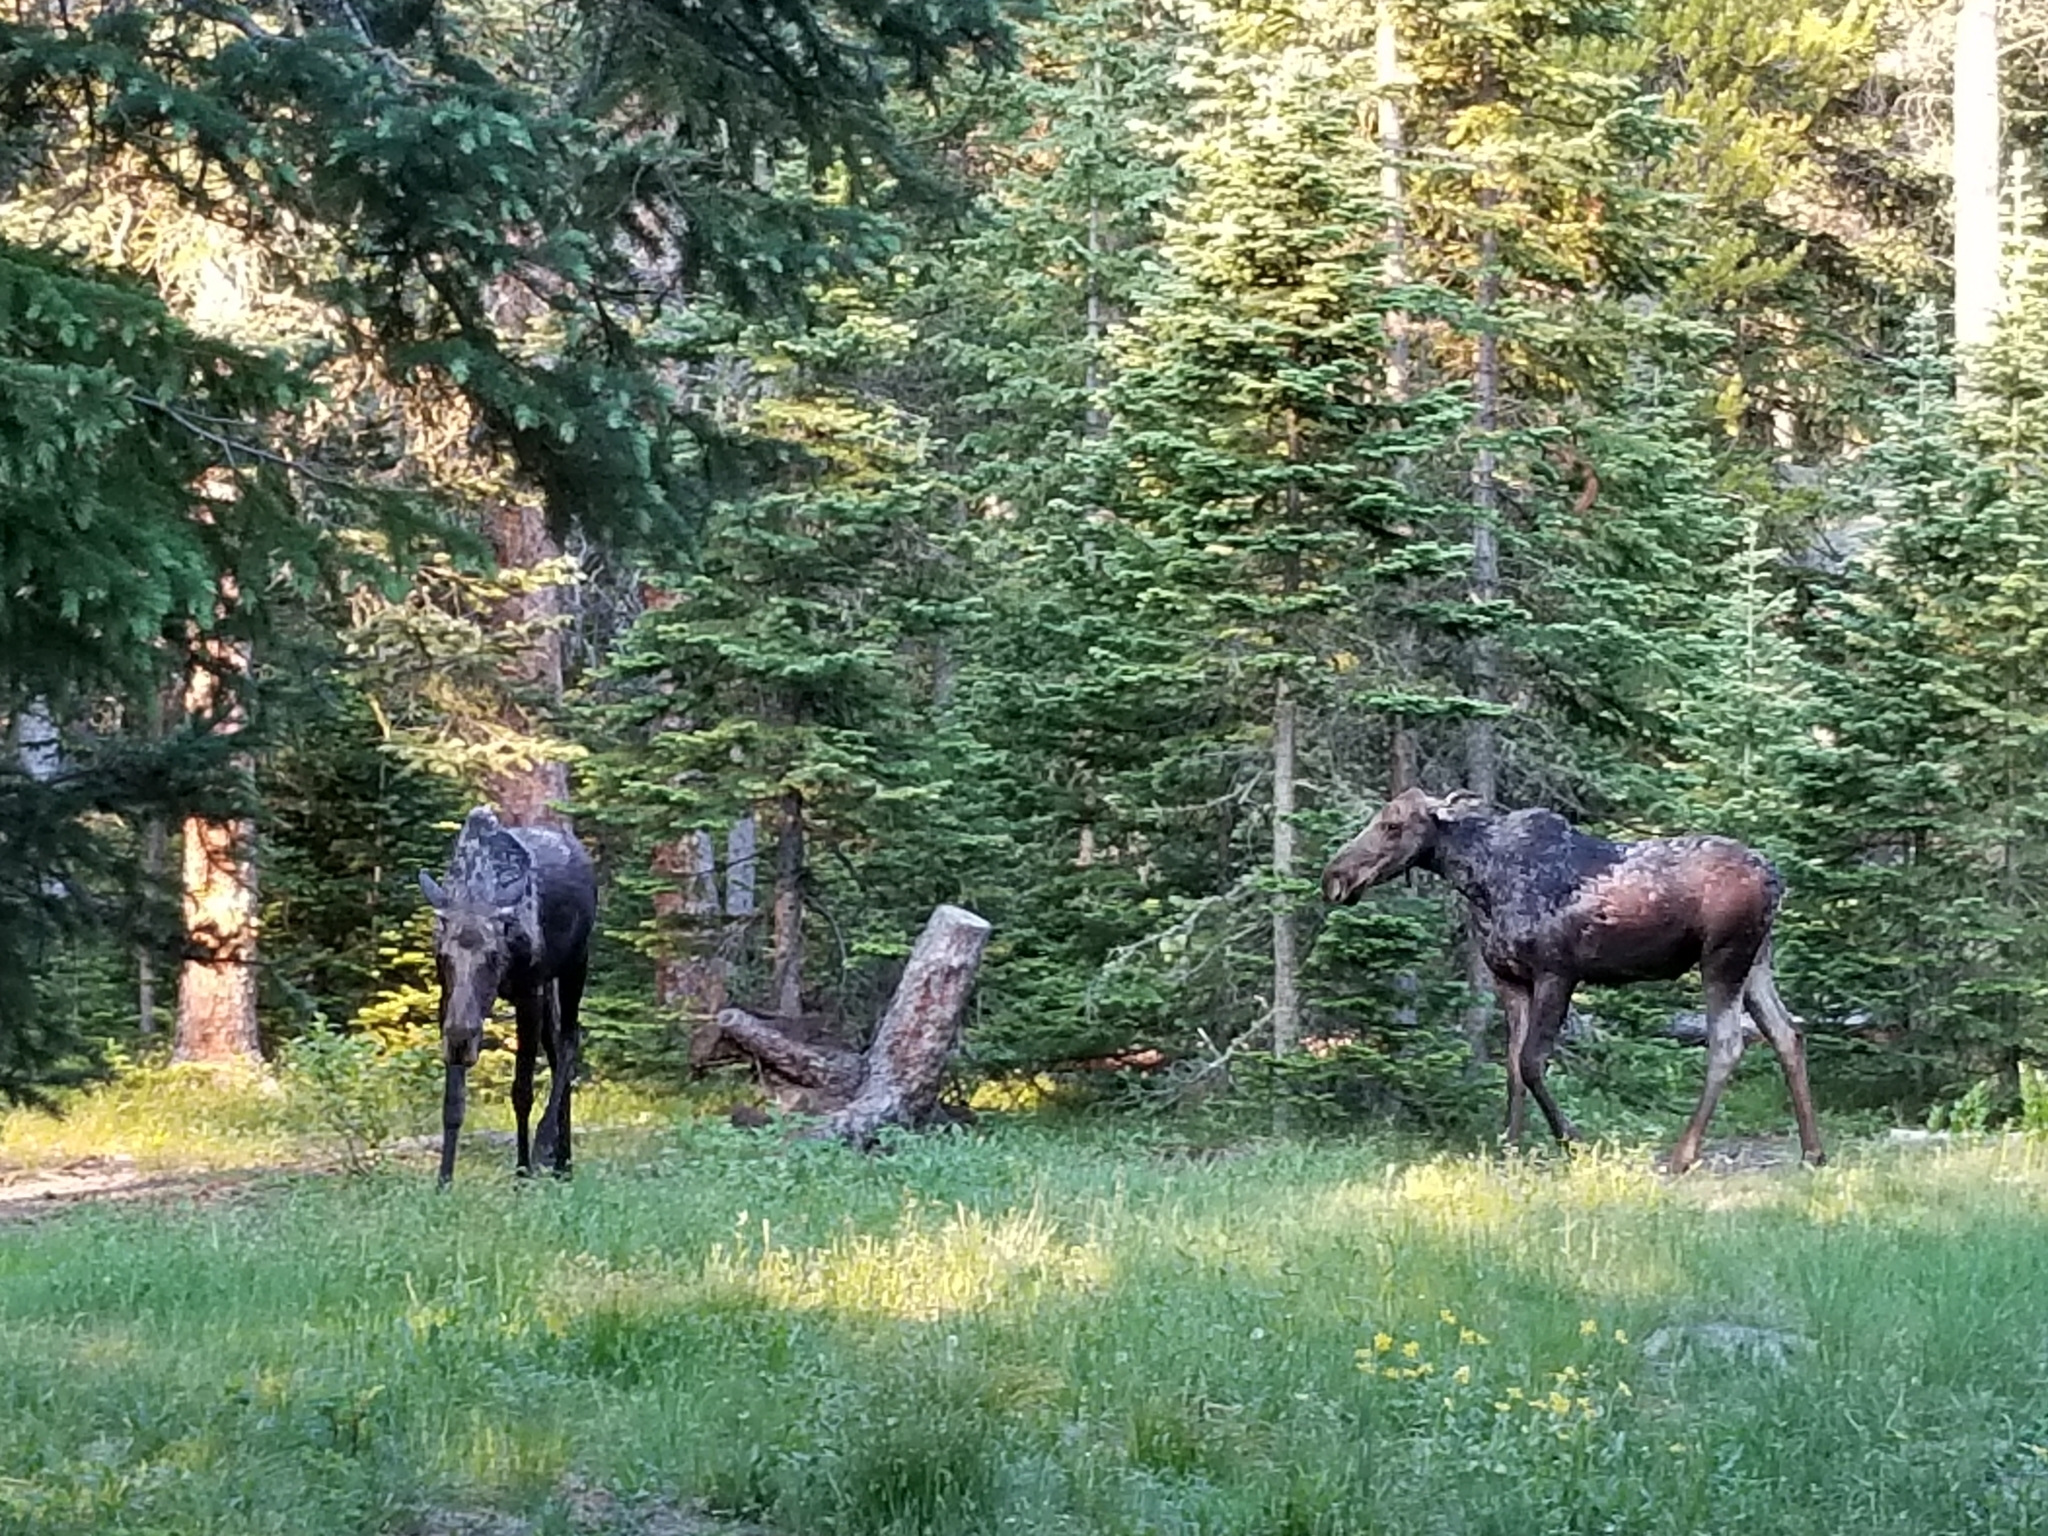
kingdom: Animalia
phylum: Chordata
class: Mammalia
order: Artiodactyla
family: Cervidae
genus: Alces
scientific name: Alces alces
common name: Moose
